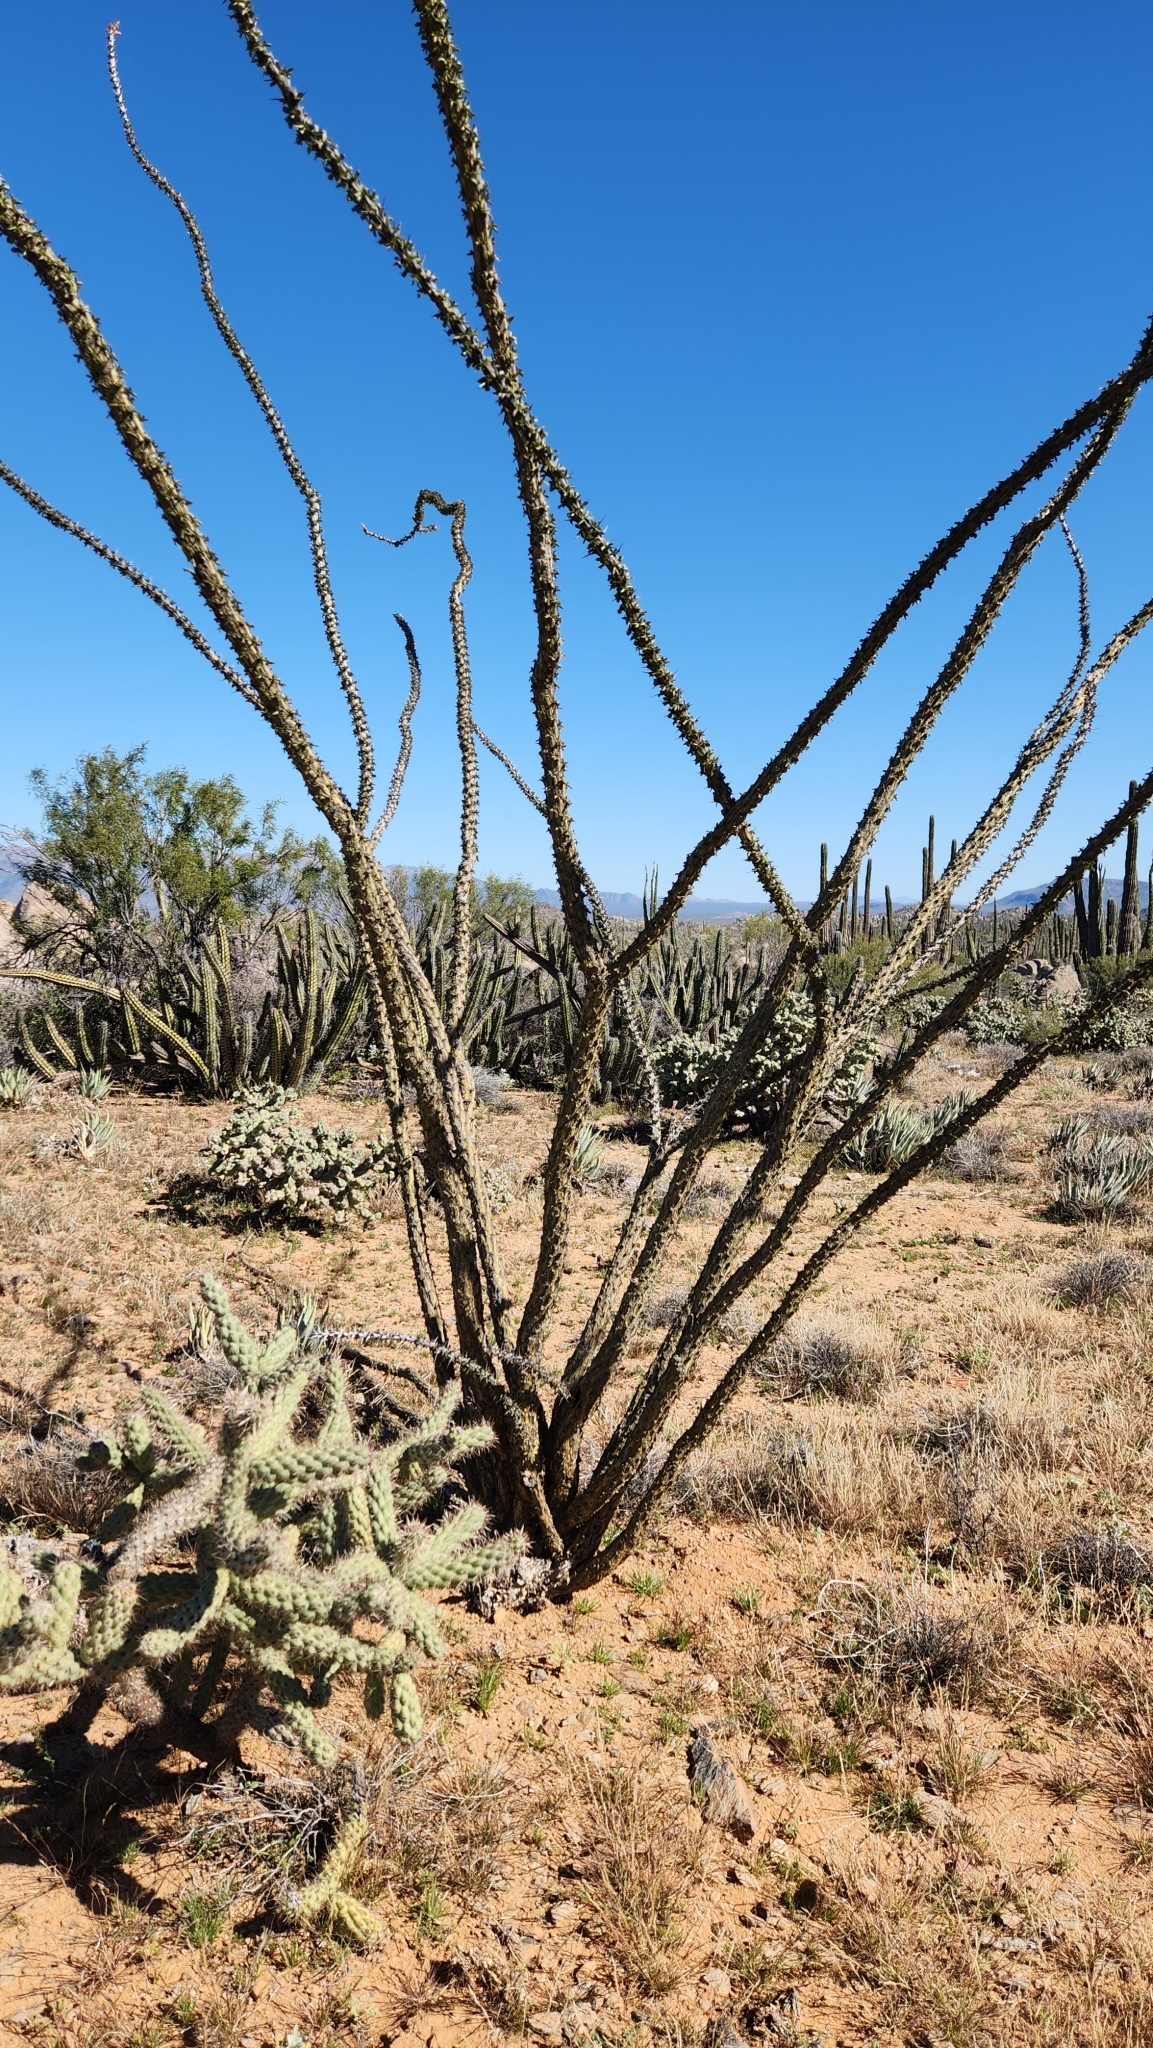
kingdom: Plantae
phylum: Tracheophyta
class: Magnoliopsida
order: Ericales
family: Fouquieriaceae
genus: Fouquieria
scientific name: Fouquieria splendens
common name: Vine-cactus
